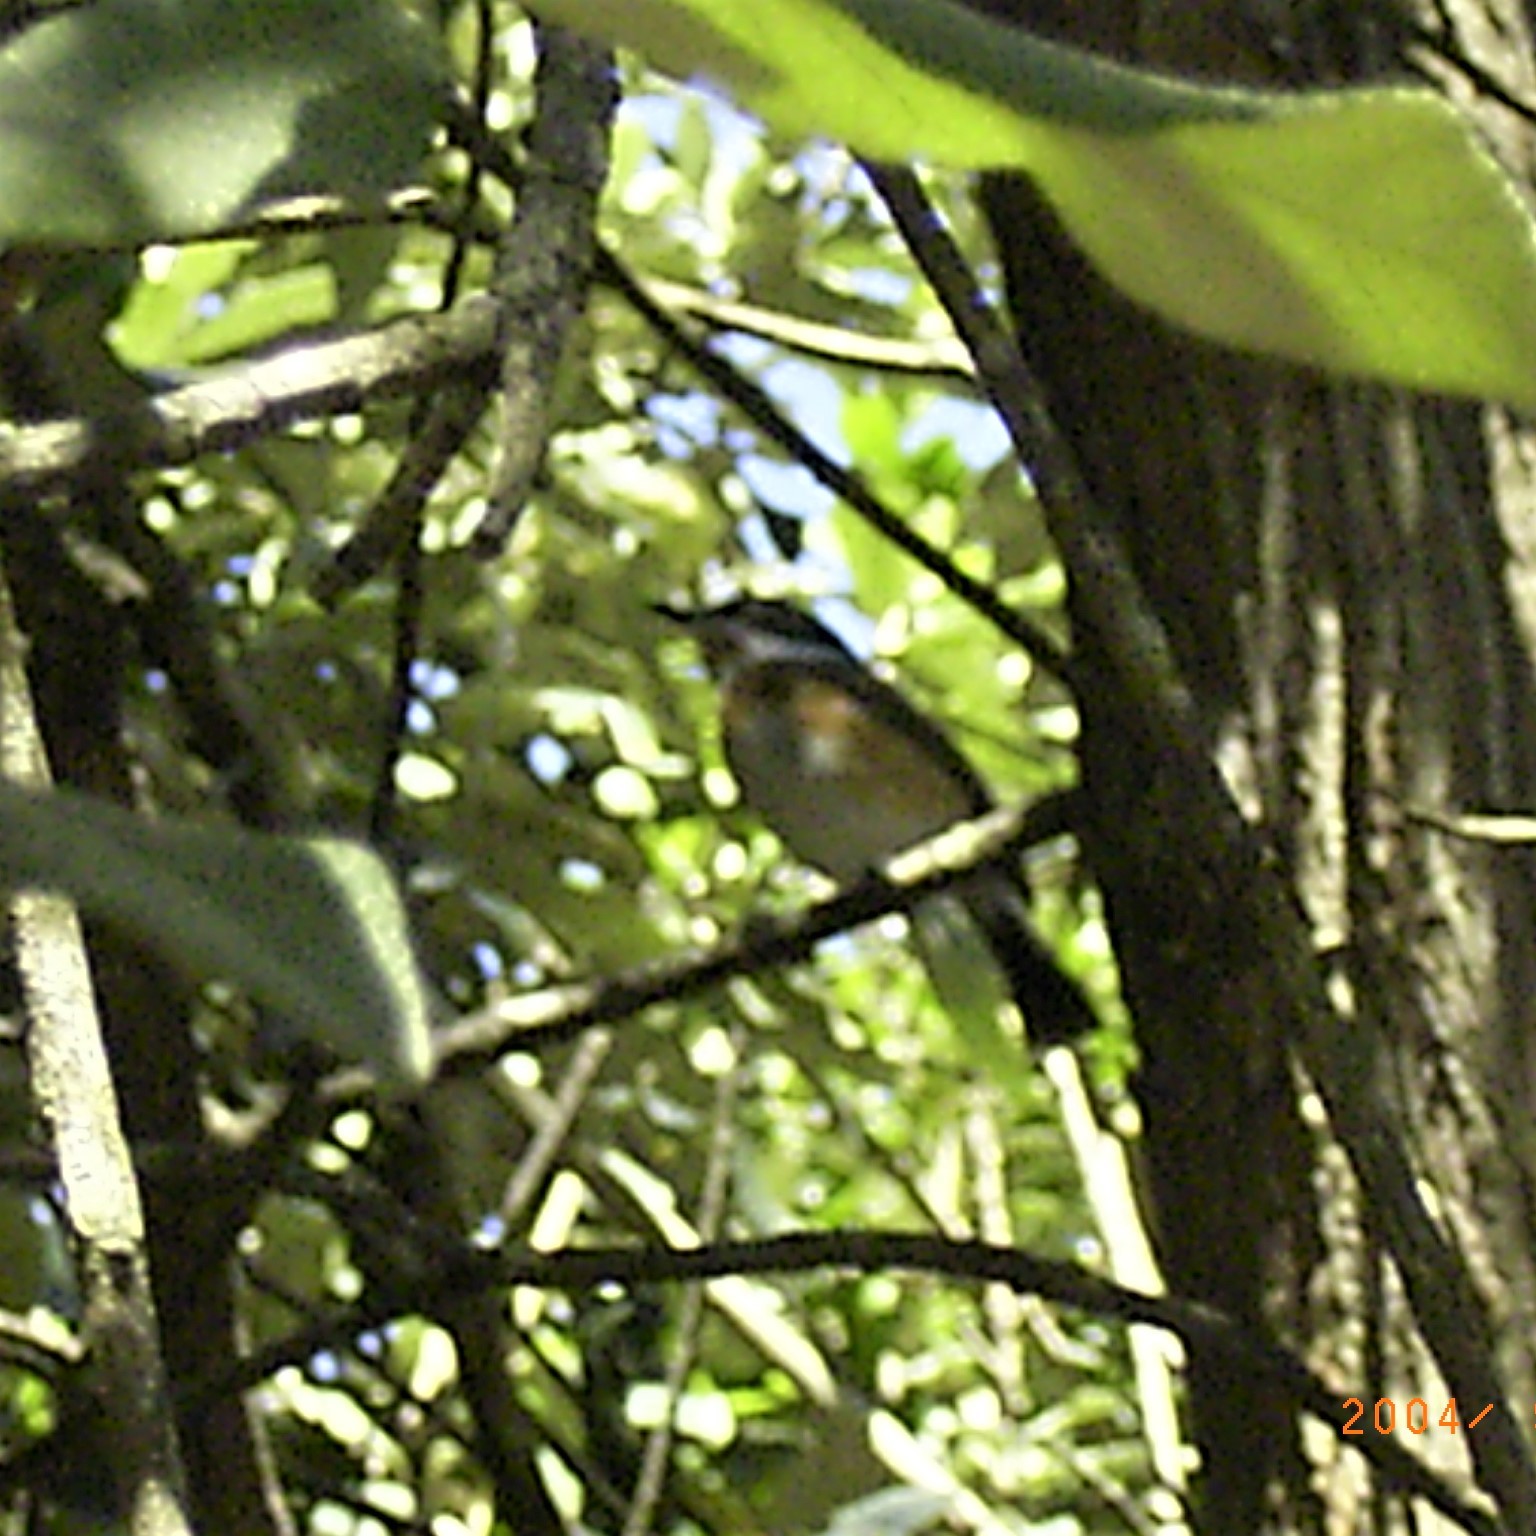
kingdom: Animalia
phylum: Chordata
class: Aves
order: Passeriformes
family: Platysteiridae
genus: Batis
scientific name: Batis capensis
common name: Cape batis
